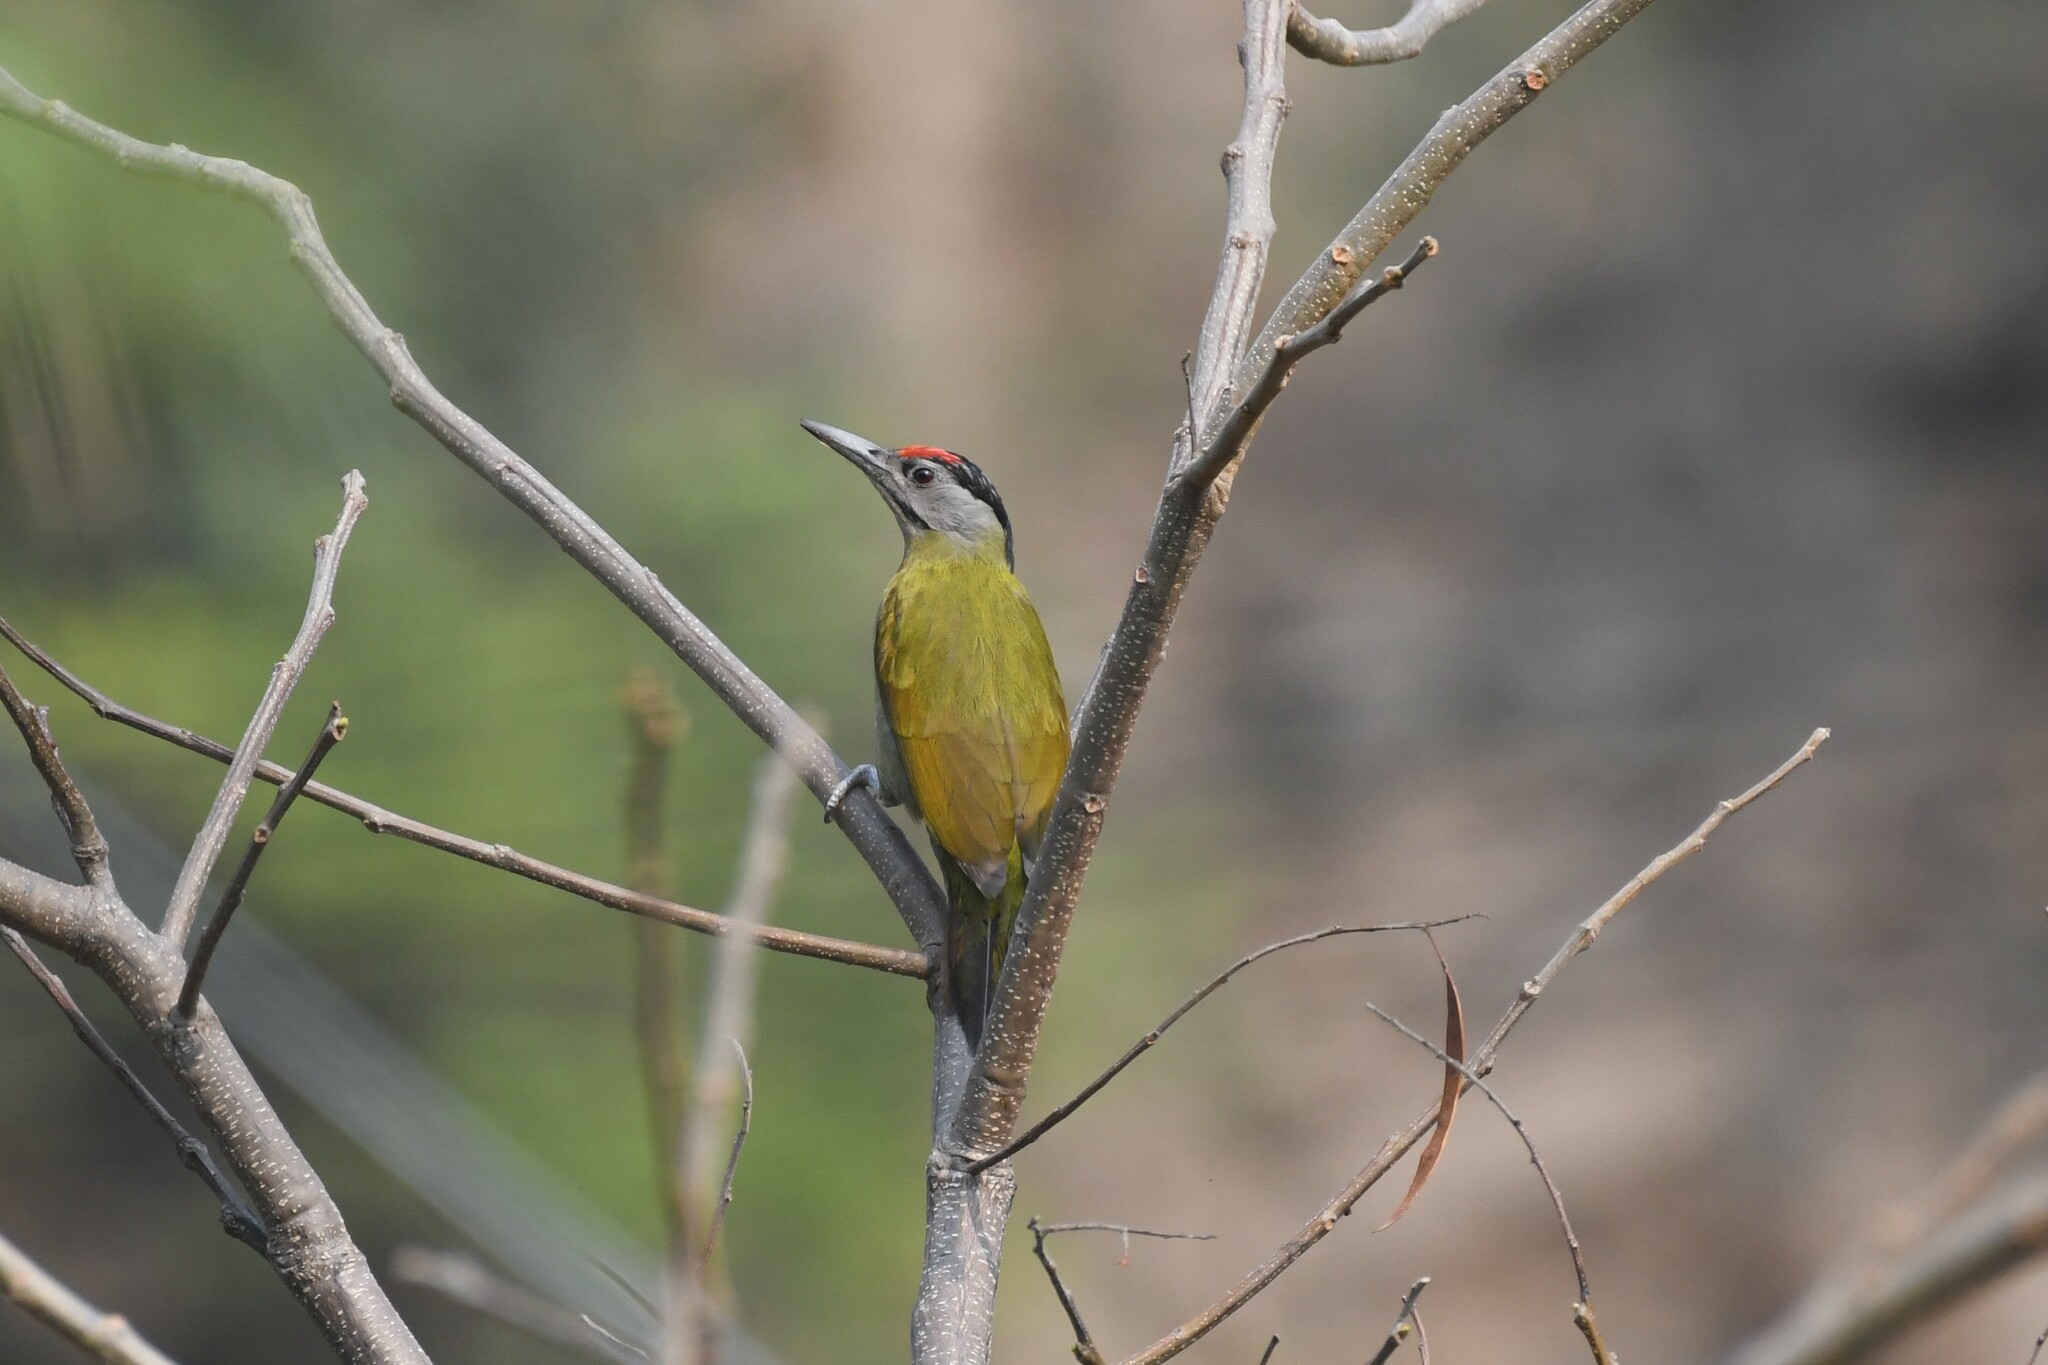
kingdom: Animalia
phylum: Chordata
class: Aves
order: Piciformes
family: Picidae
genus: Picus
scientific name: Picus canus
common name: Grey-headed woodpecker
